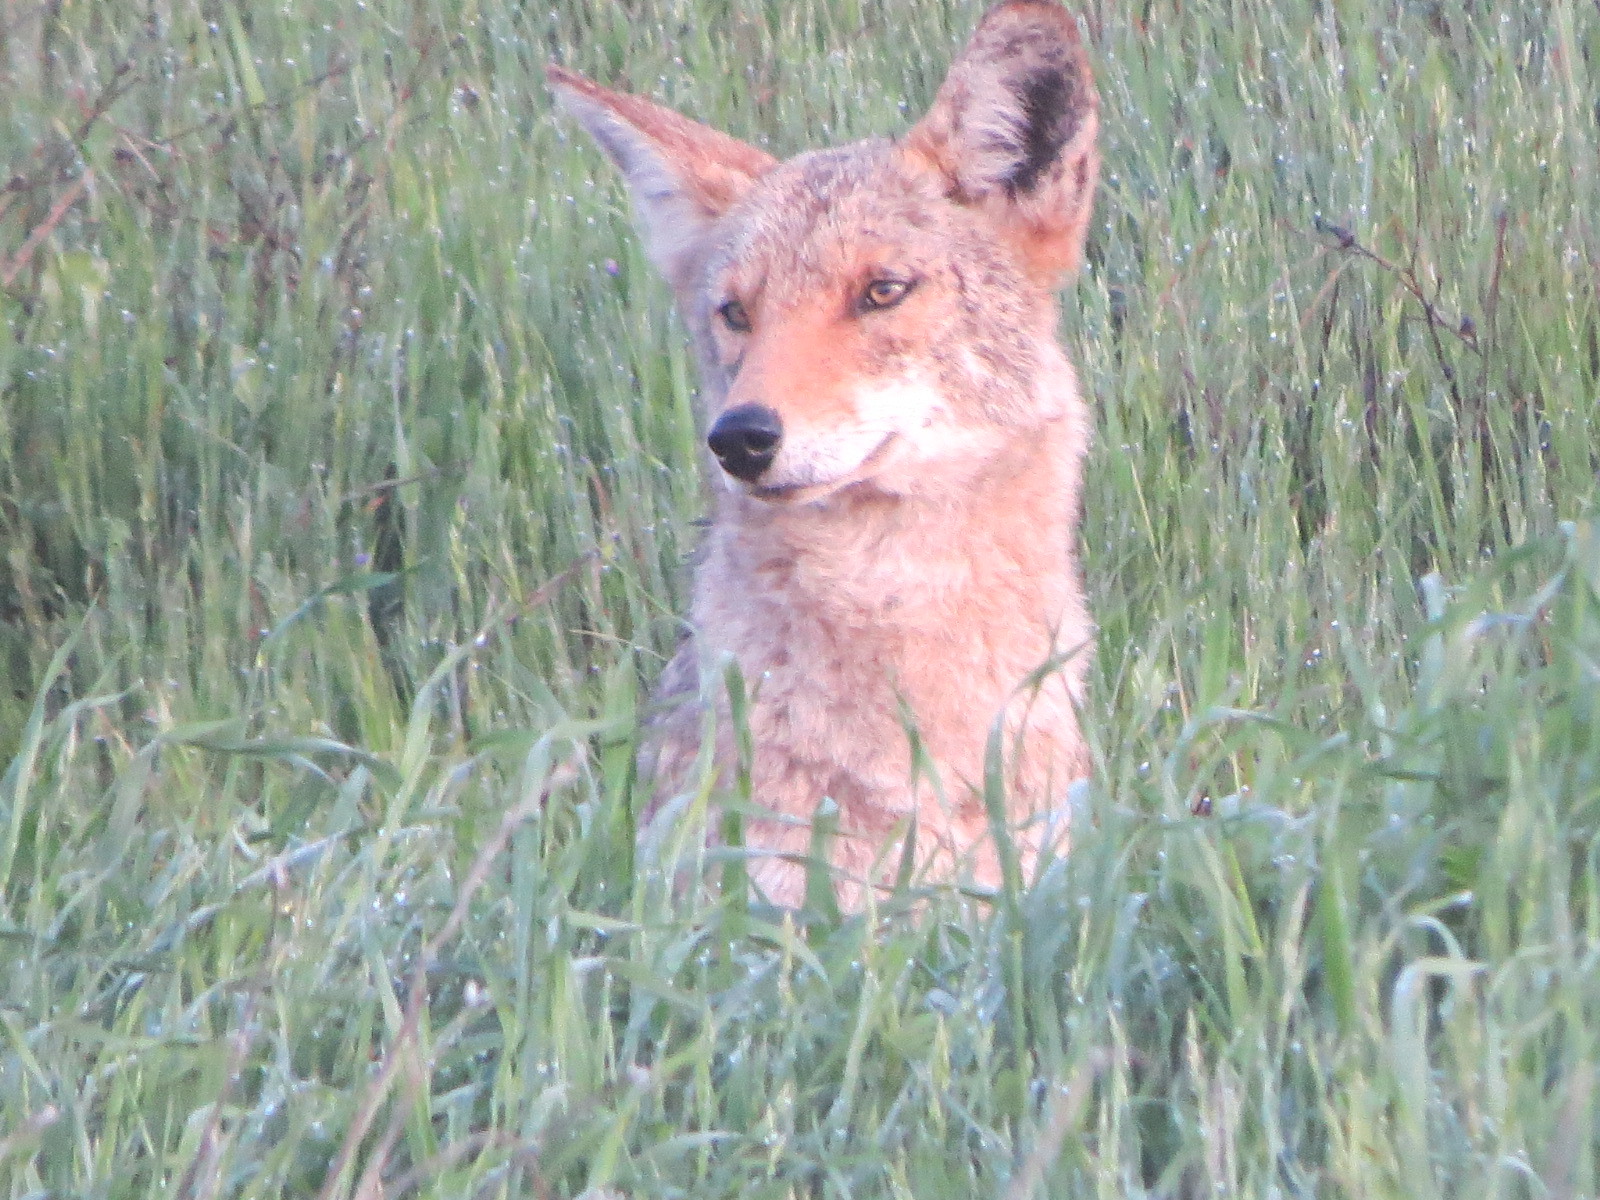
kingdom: Animalia
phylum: Chordata
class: Mammalia
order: Carnivora
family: Canidae
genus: Canis
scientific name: Canis latrans
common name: Coyote
